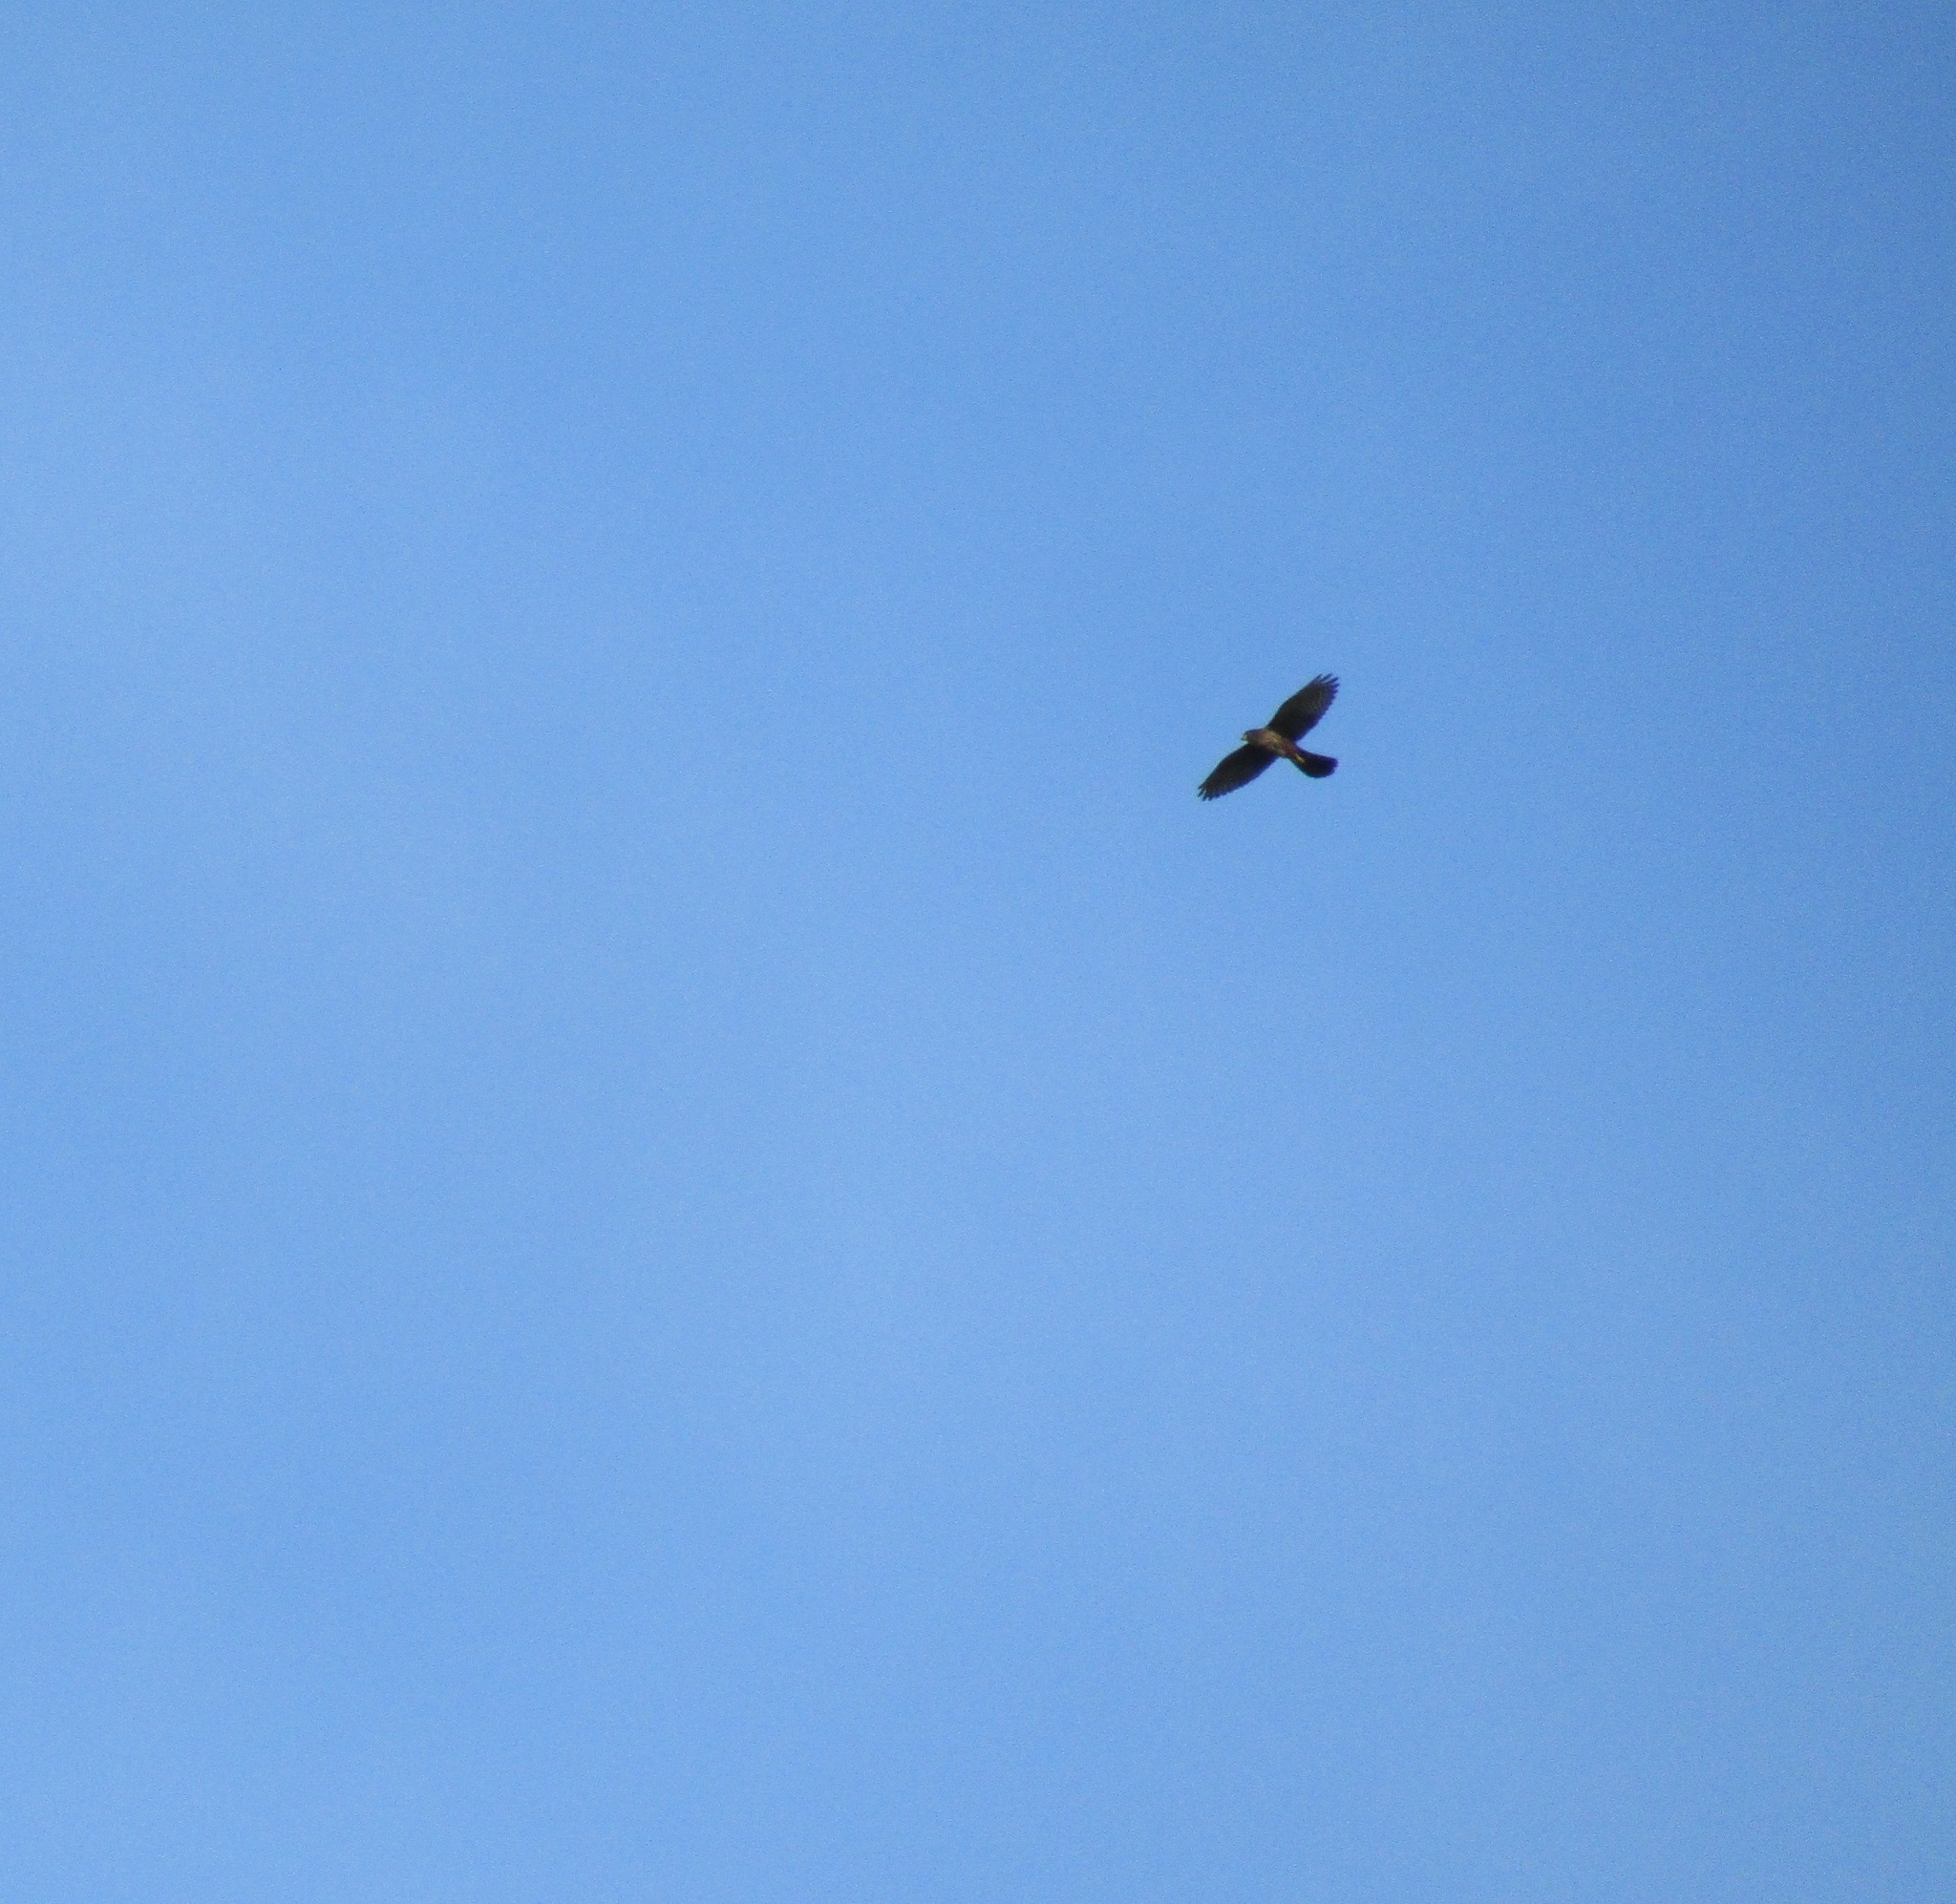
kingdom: Animalia
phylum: Chordata
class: Aves
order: Falconiformes
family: Falconidae
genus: Falco
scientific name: Falco novaeseelandiae
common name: New zealand falcon
